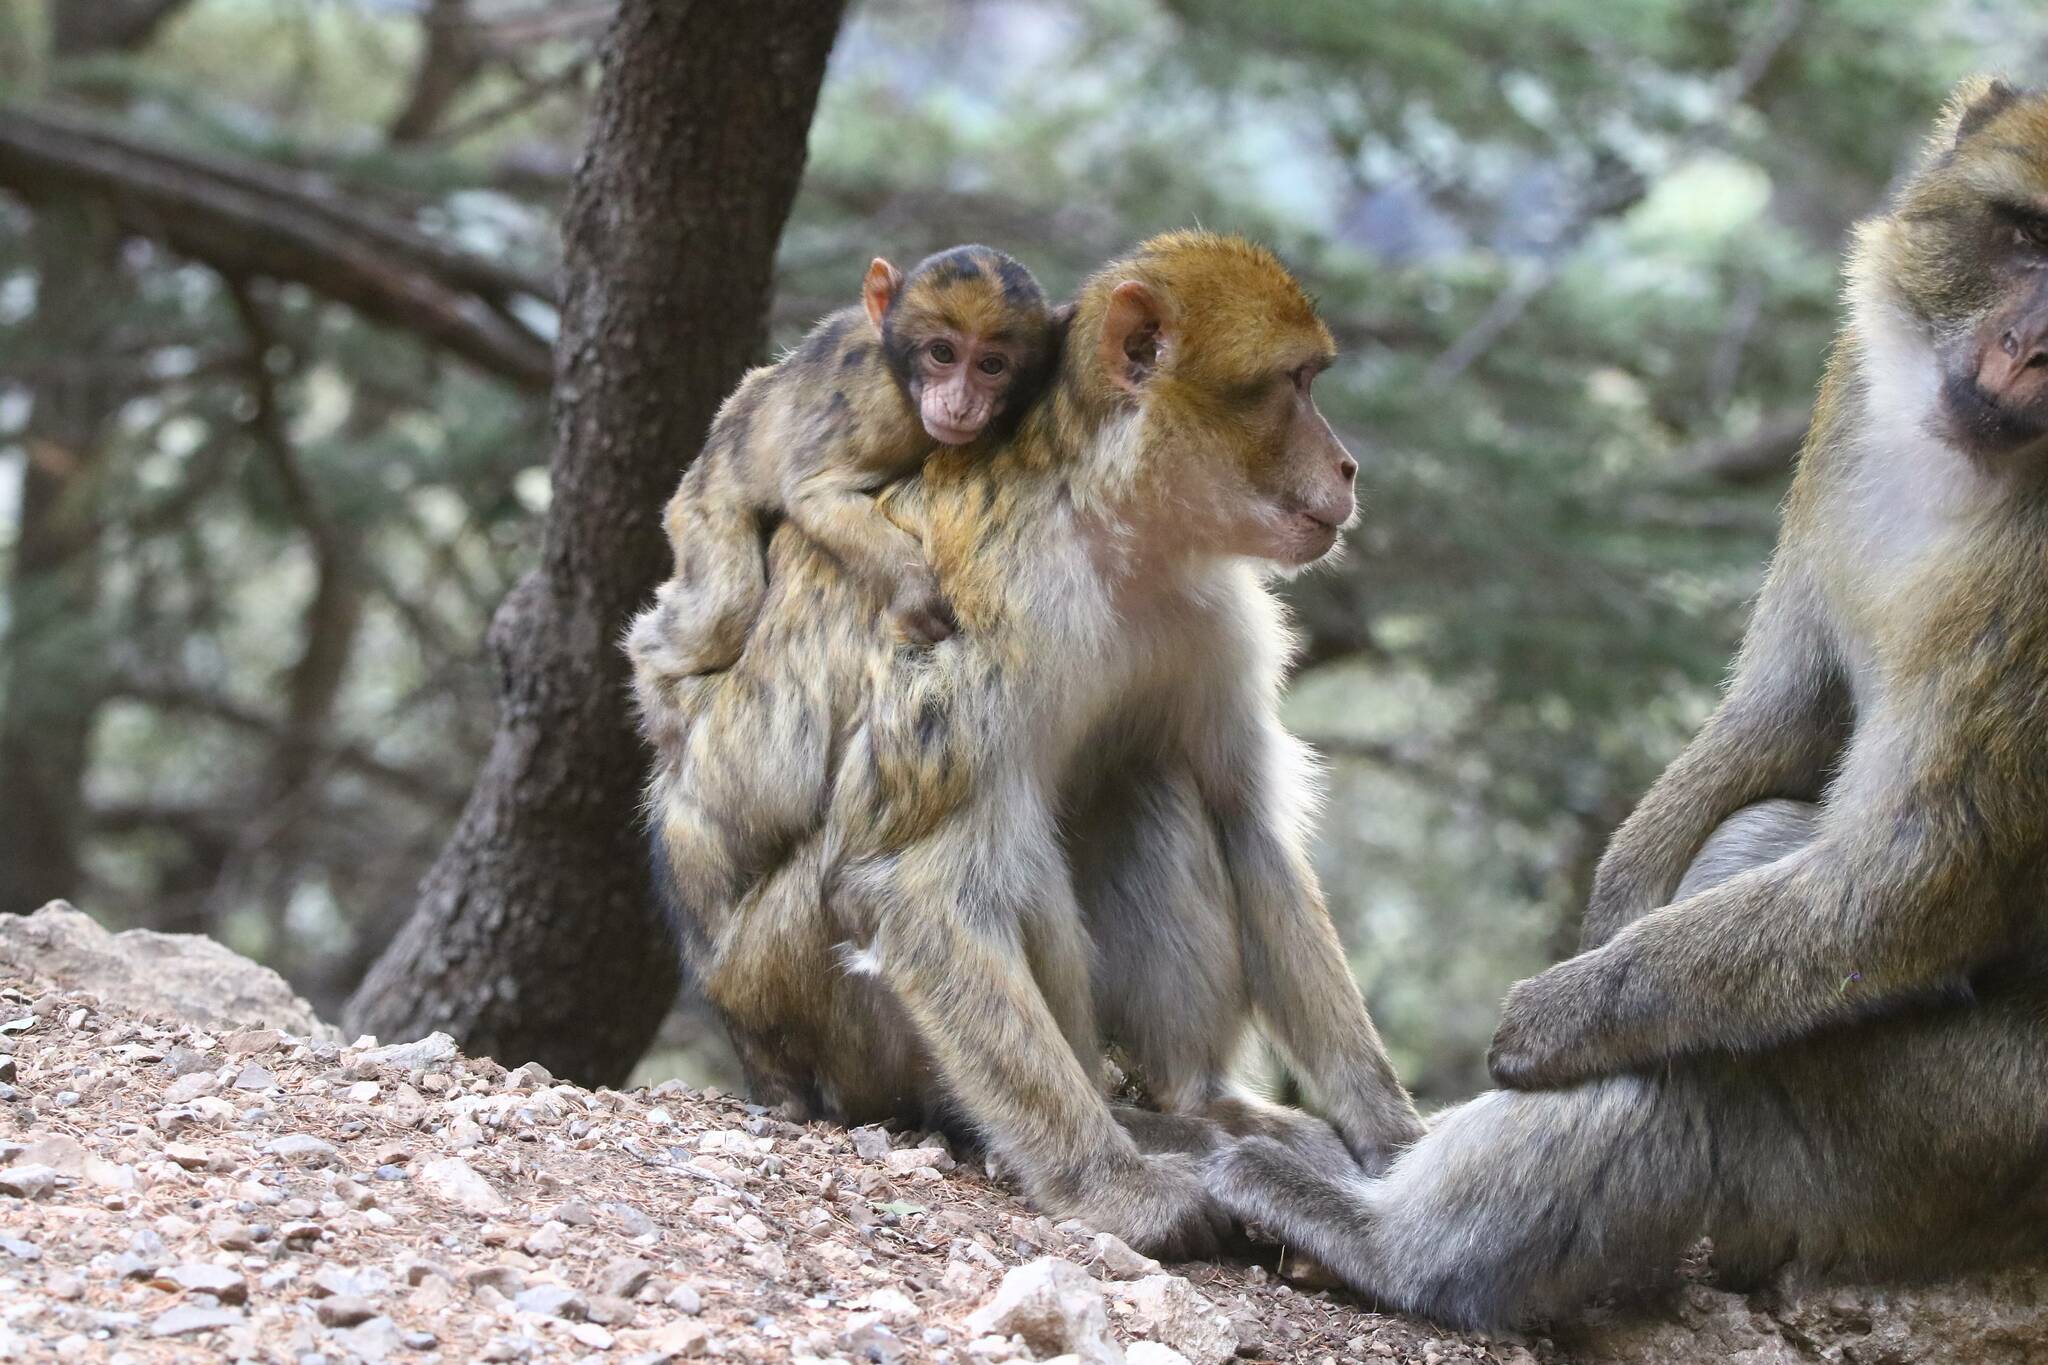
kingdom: Animalia
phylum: Chordata
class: Mammalia
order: Primates
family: Cercopithecidae
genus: Macaca
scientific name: Macaca sylvanus
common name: Barbary macaque
